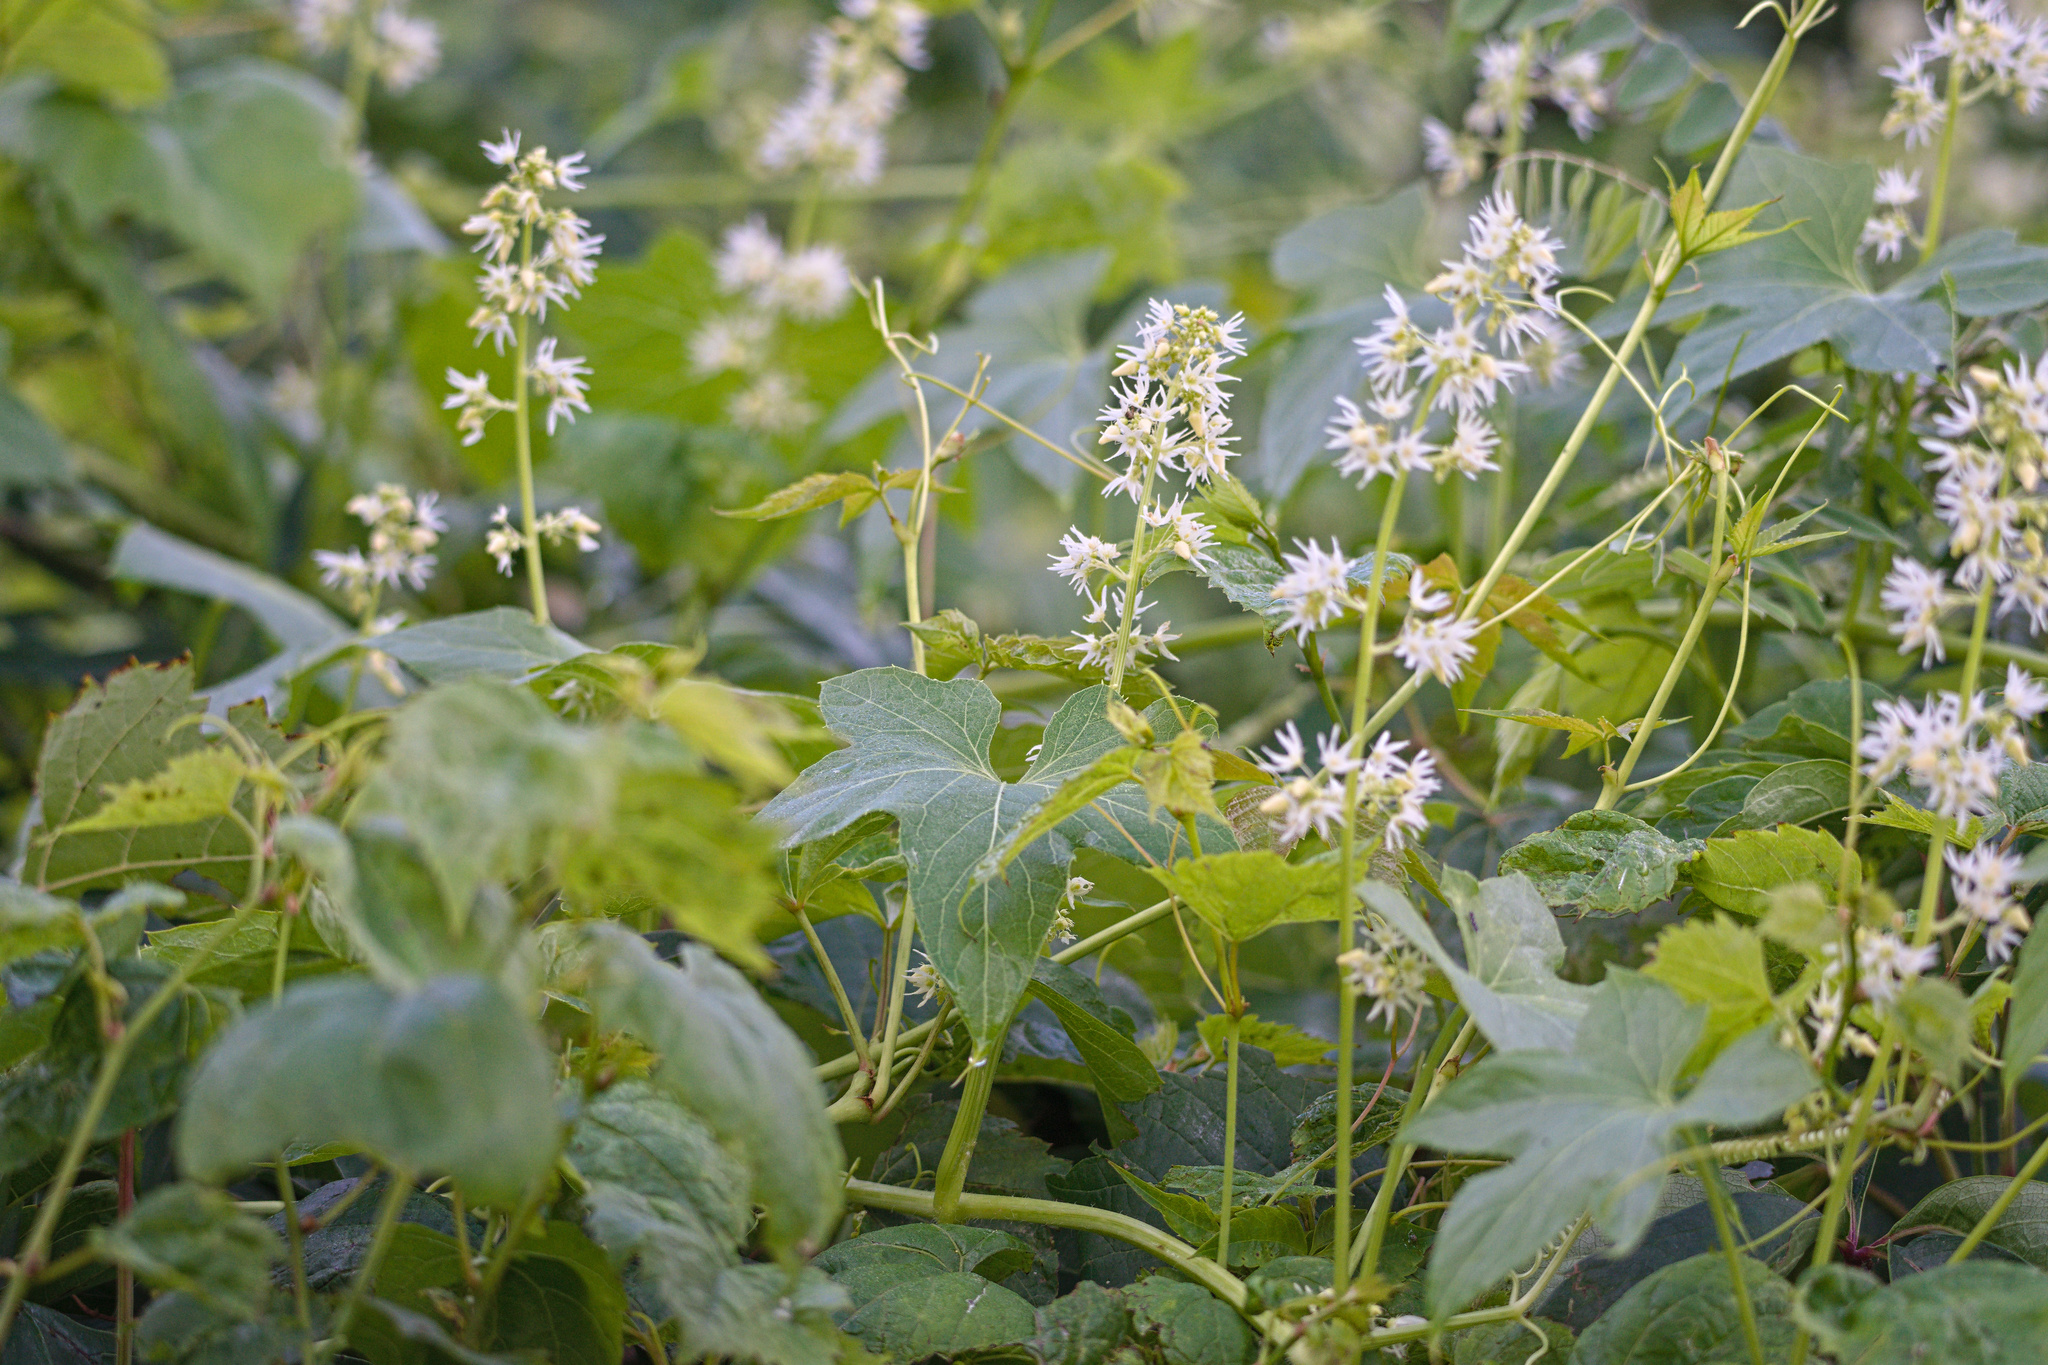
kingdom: Plantae
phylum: Tracheophyta
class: Magnoliopsida
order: Cucurbitales
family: Cucurbitaceae
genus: Echinocystis
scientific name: Echinocystis lobata
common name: Wild cucumber
